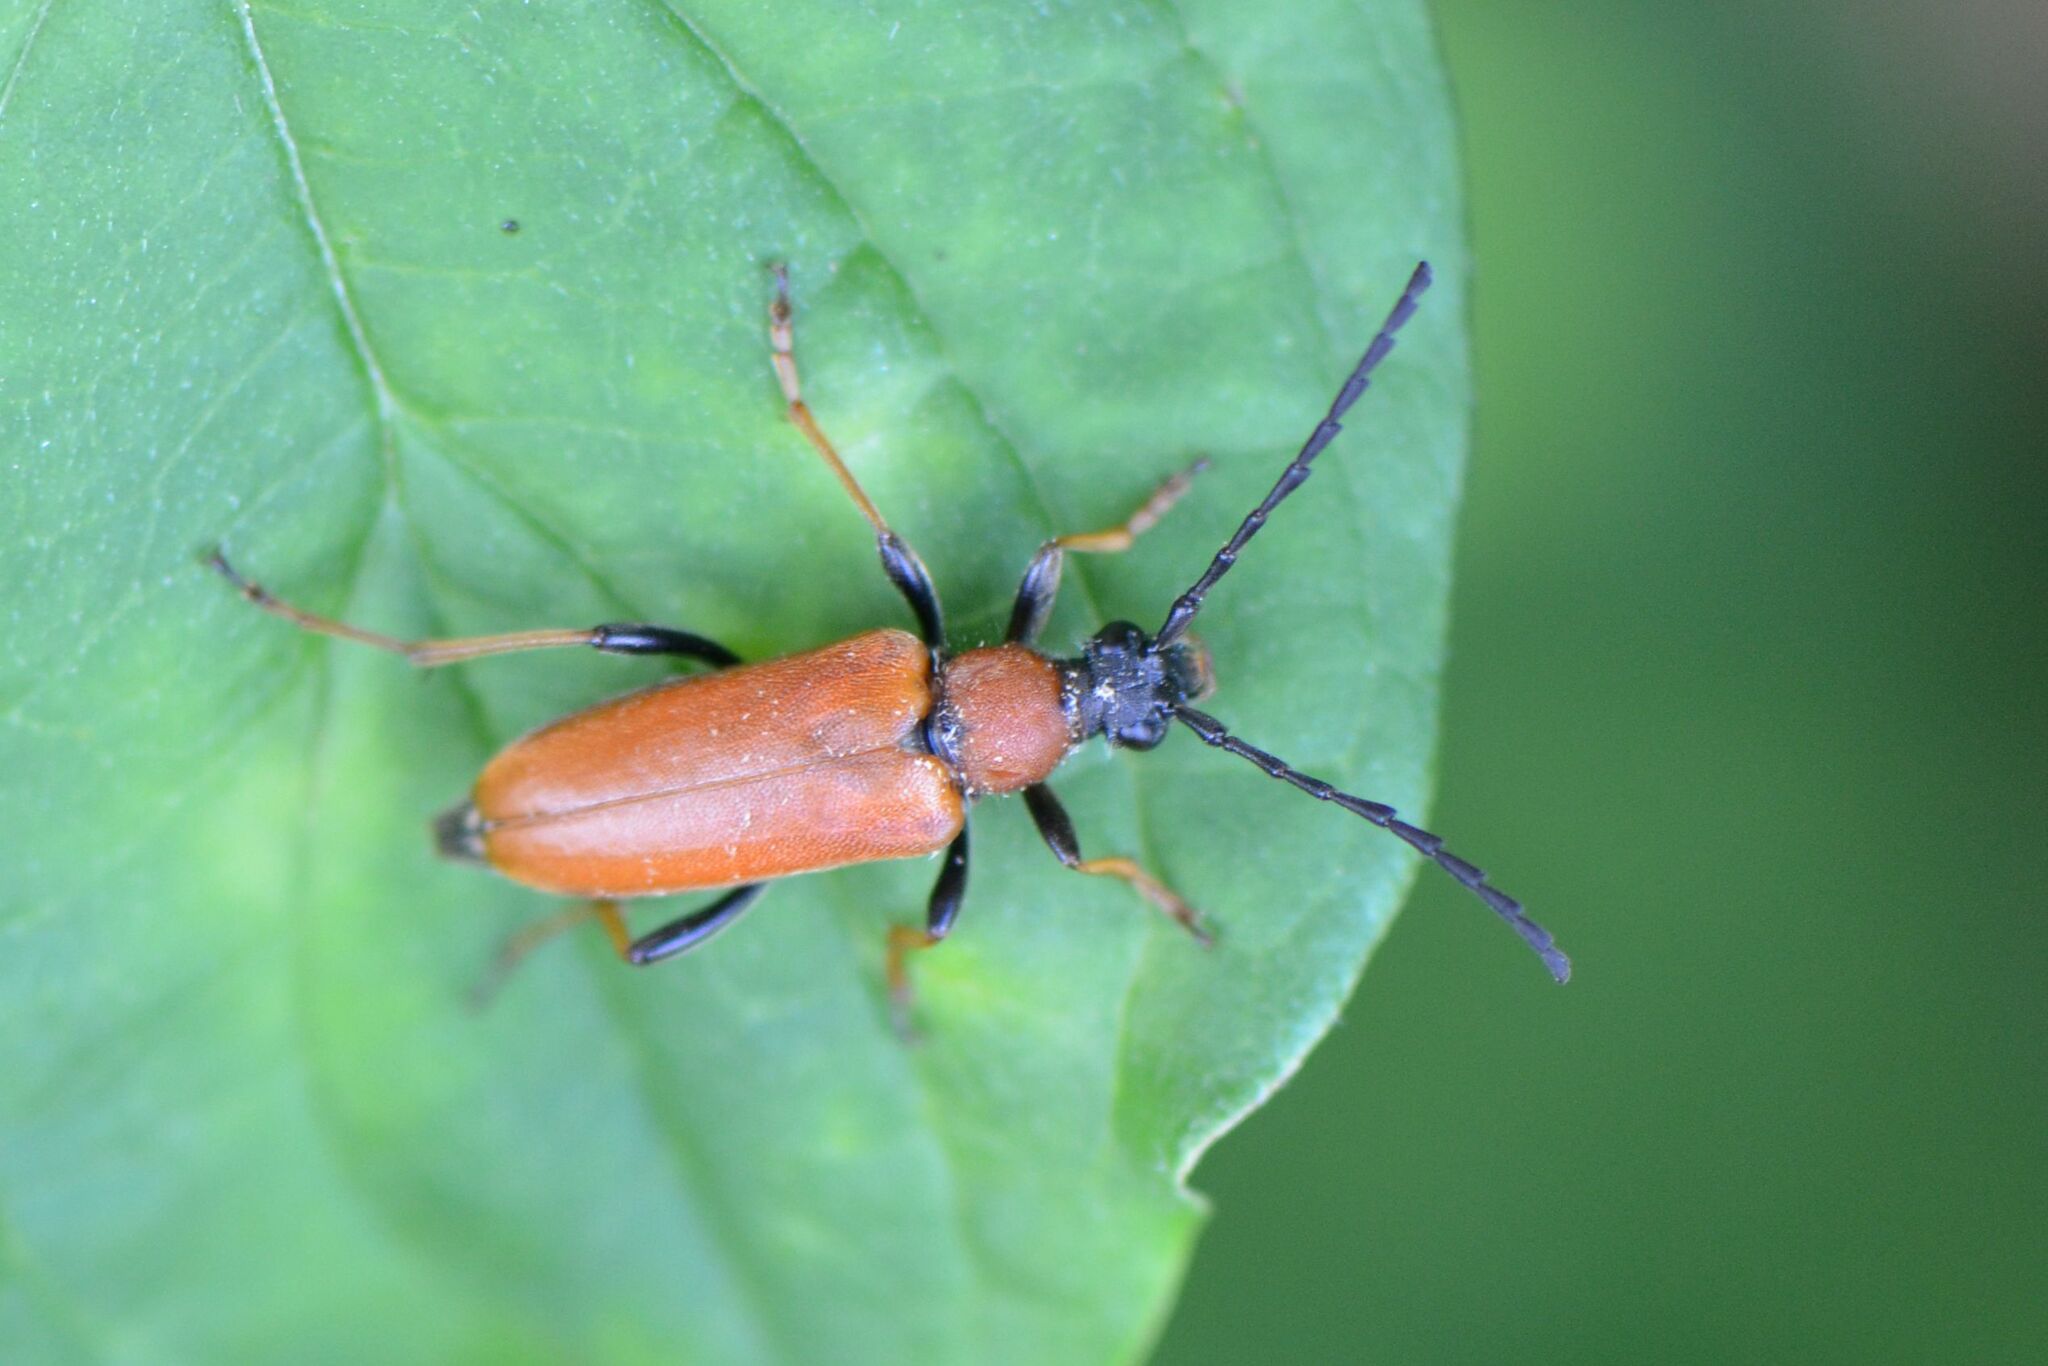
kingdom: Animalia
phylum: Arthropoda
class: Insecta
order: Coleoptera
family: Cerambycidae
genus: Stictoleptura
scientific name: Stictoleptura rubra
